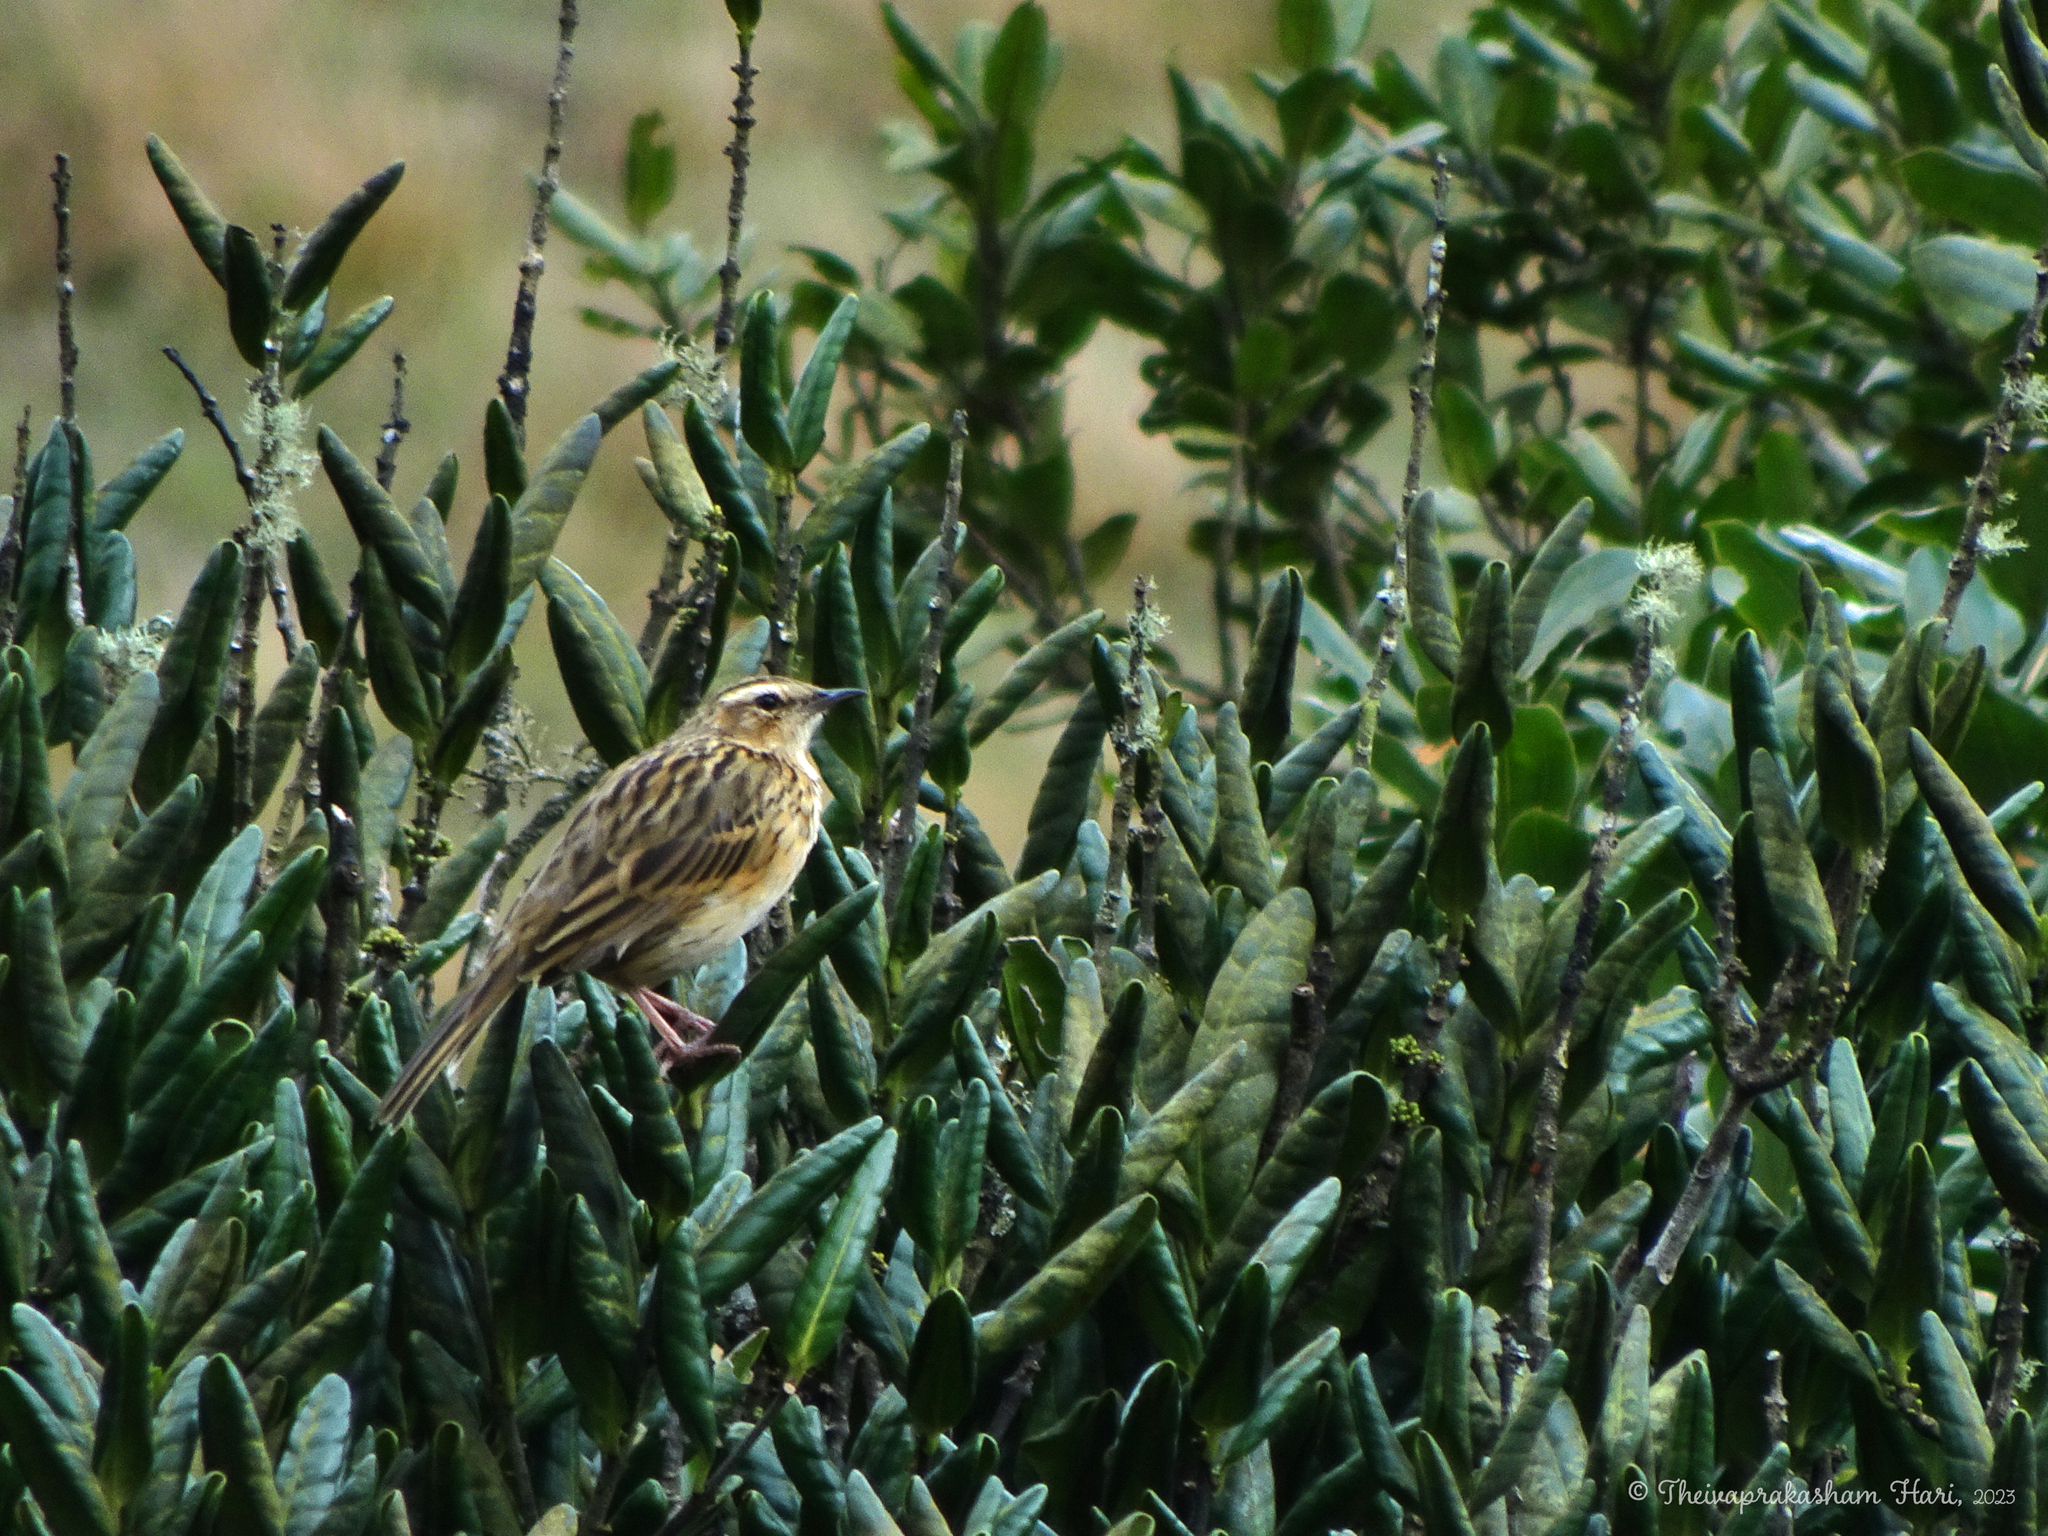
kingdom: Animalia
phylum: Chordata
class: Aves
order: Passeriformes
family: Motacillidae
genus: Anthus
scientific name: Anthus nilghiriensis
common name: Nilgiri pipit
